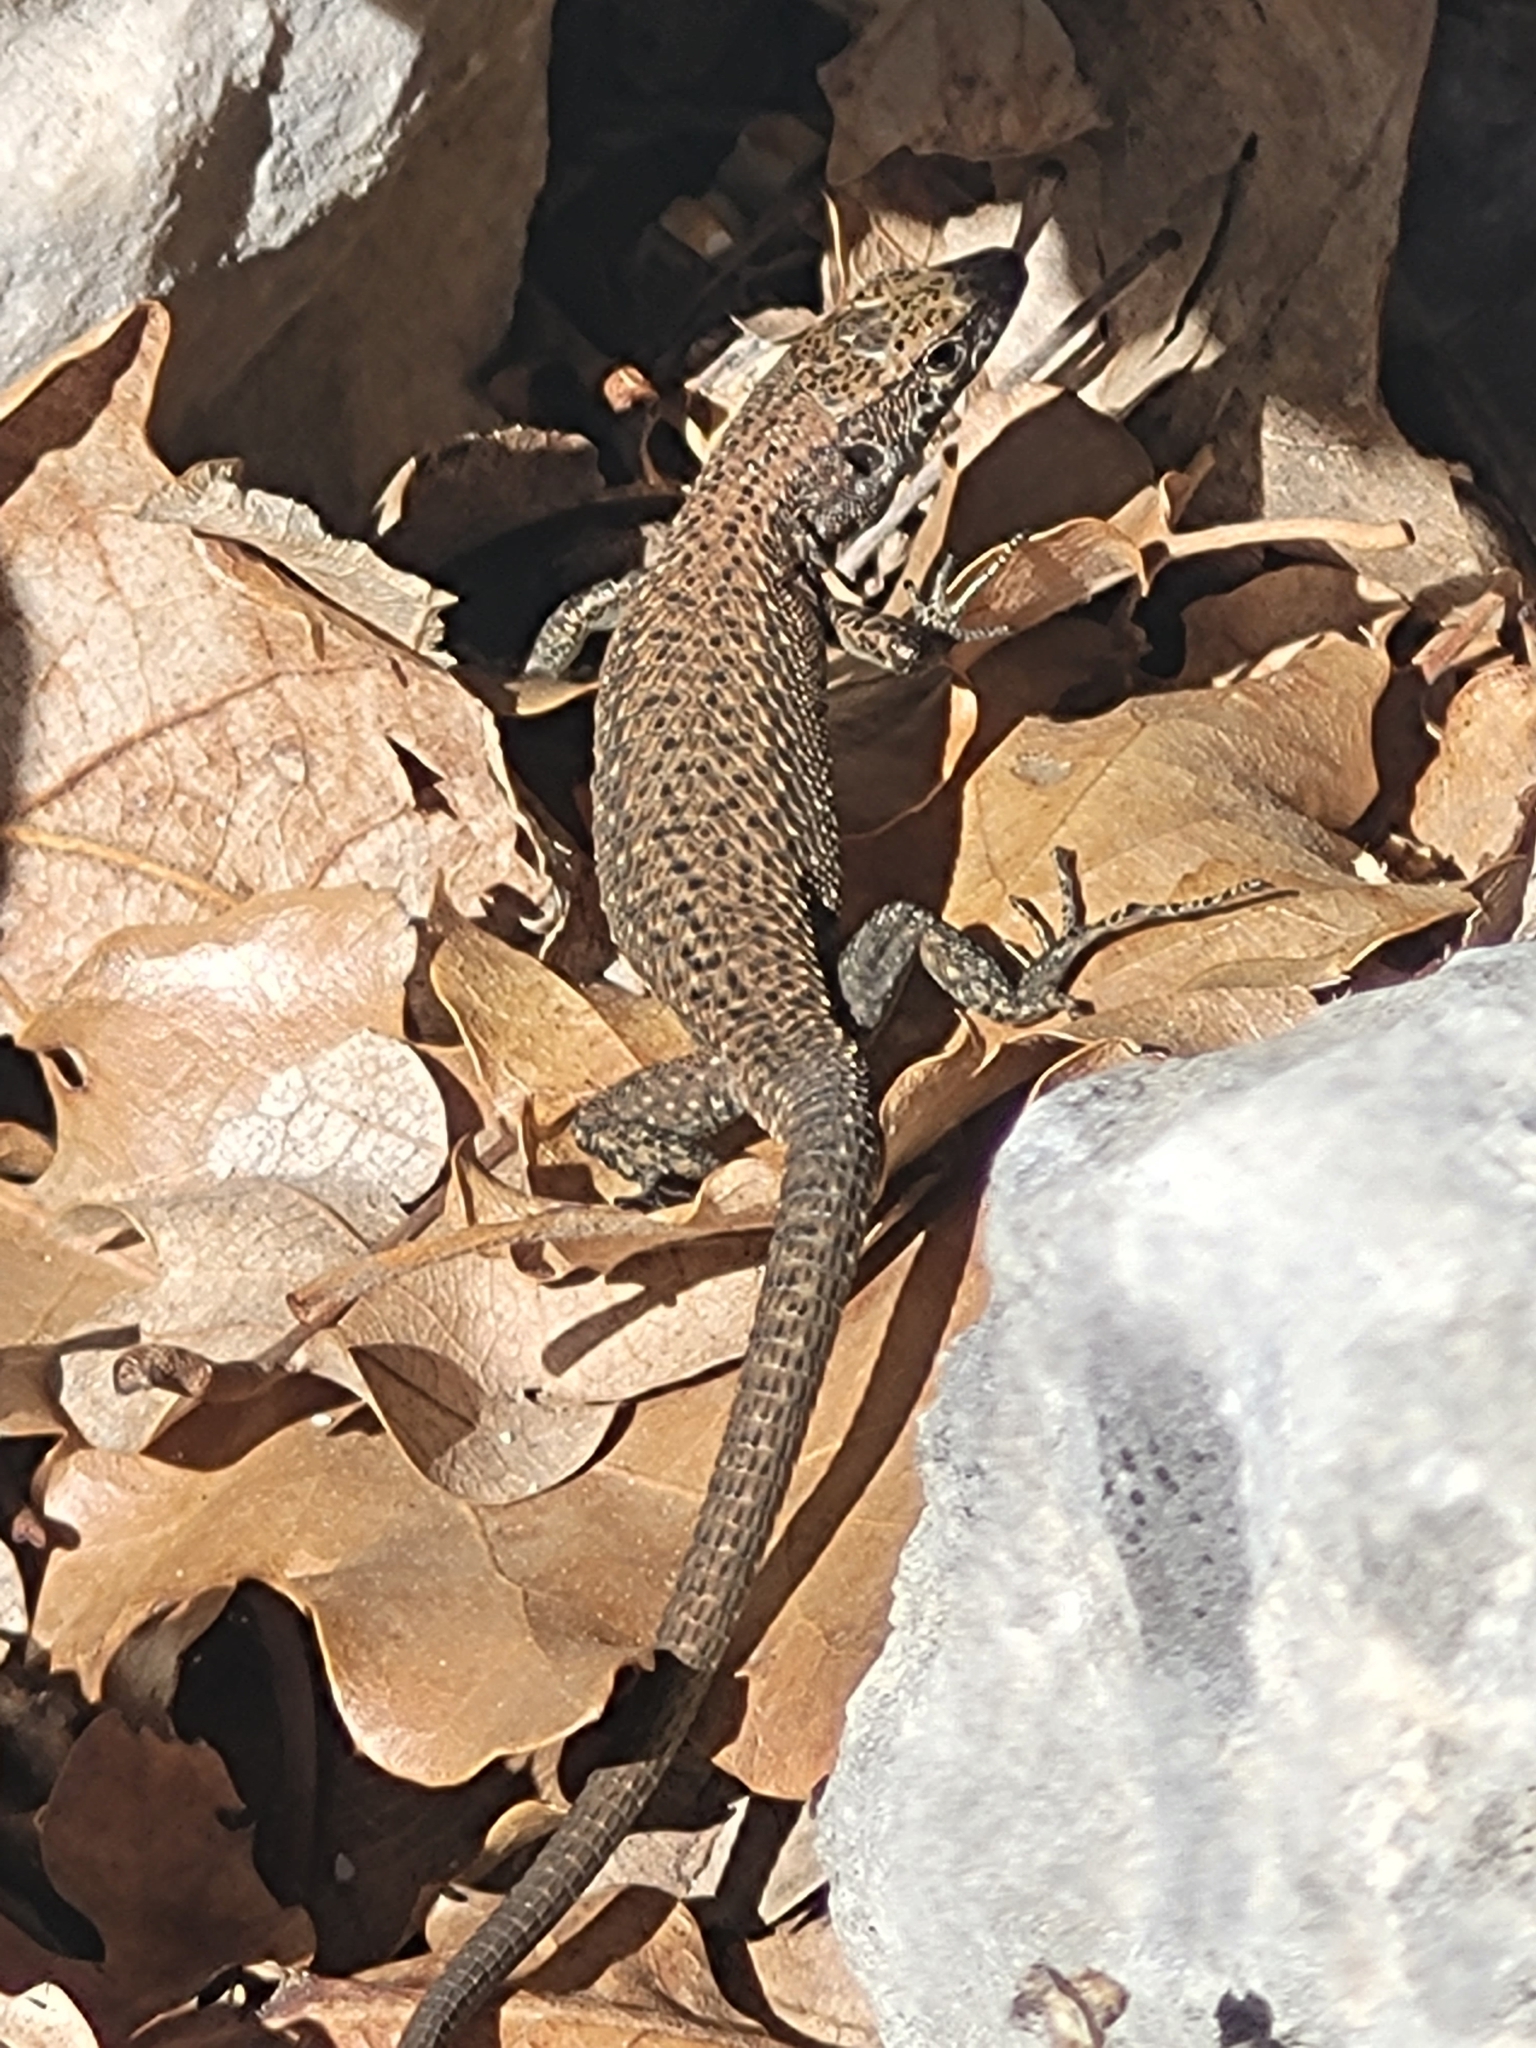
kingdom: Animalia
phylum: Chordata
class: Squamata
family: Lacertidae
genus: Algyroides
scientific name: Algyroides nigropunctatus
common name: Blue-throated keeled lizard
